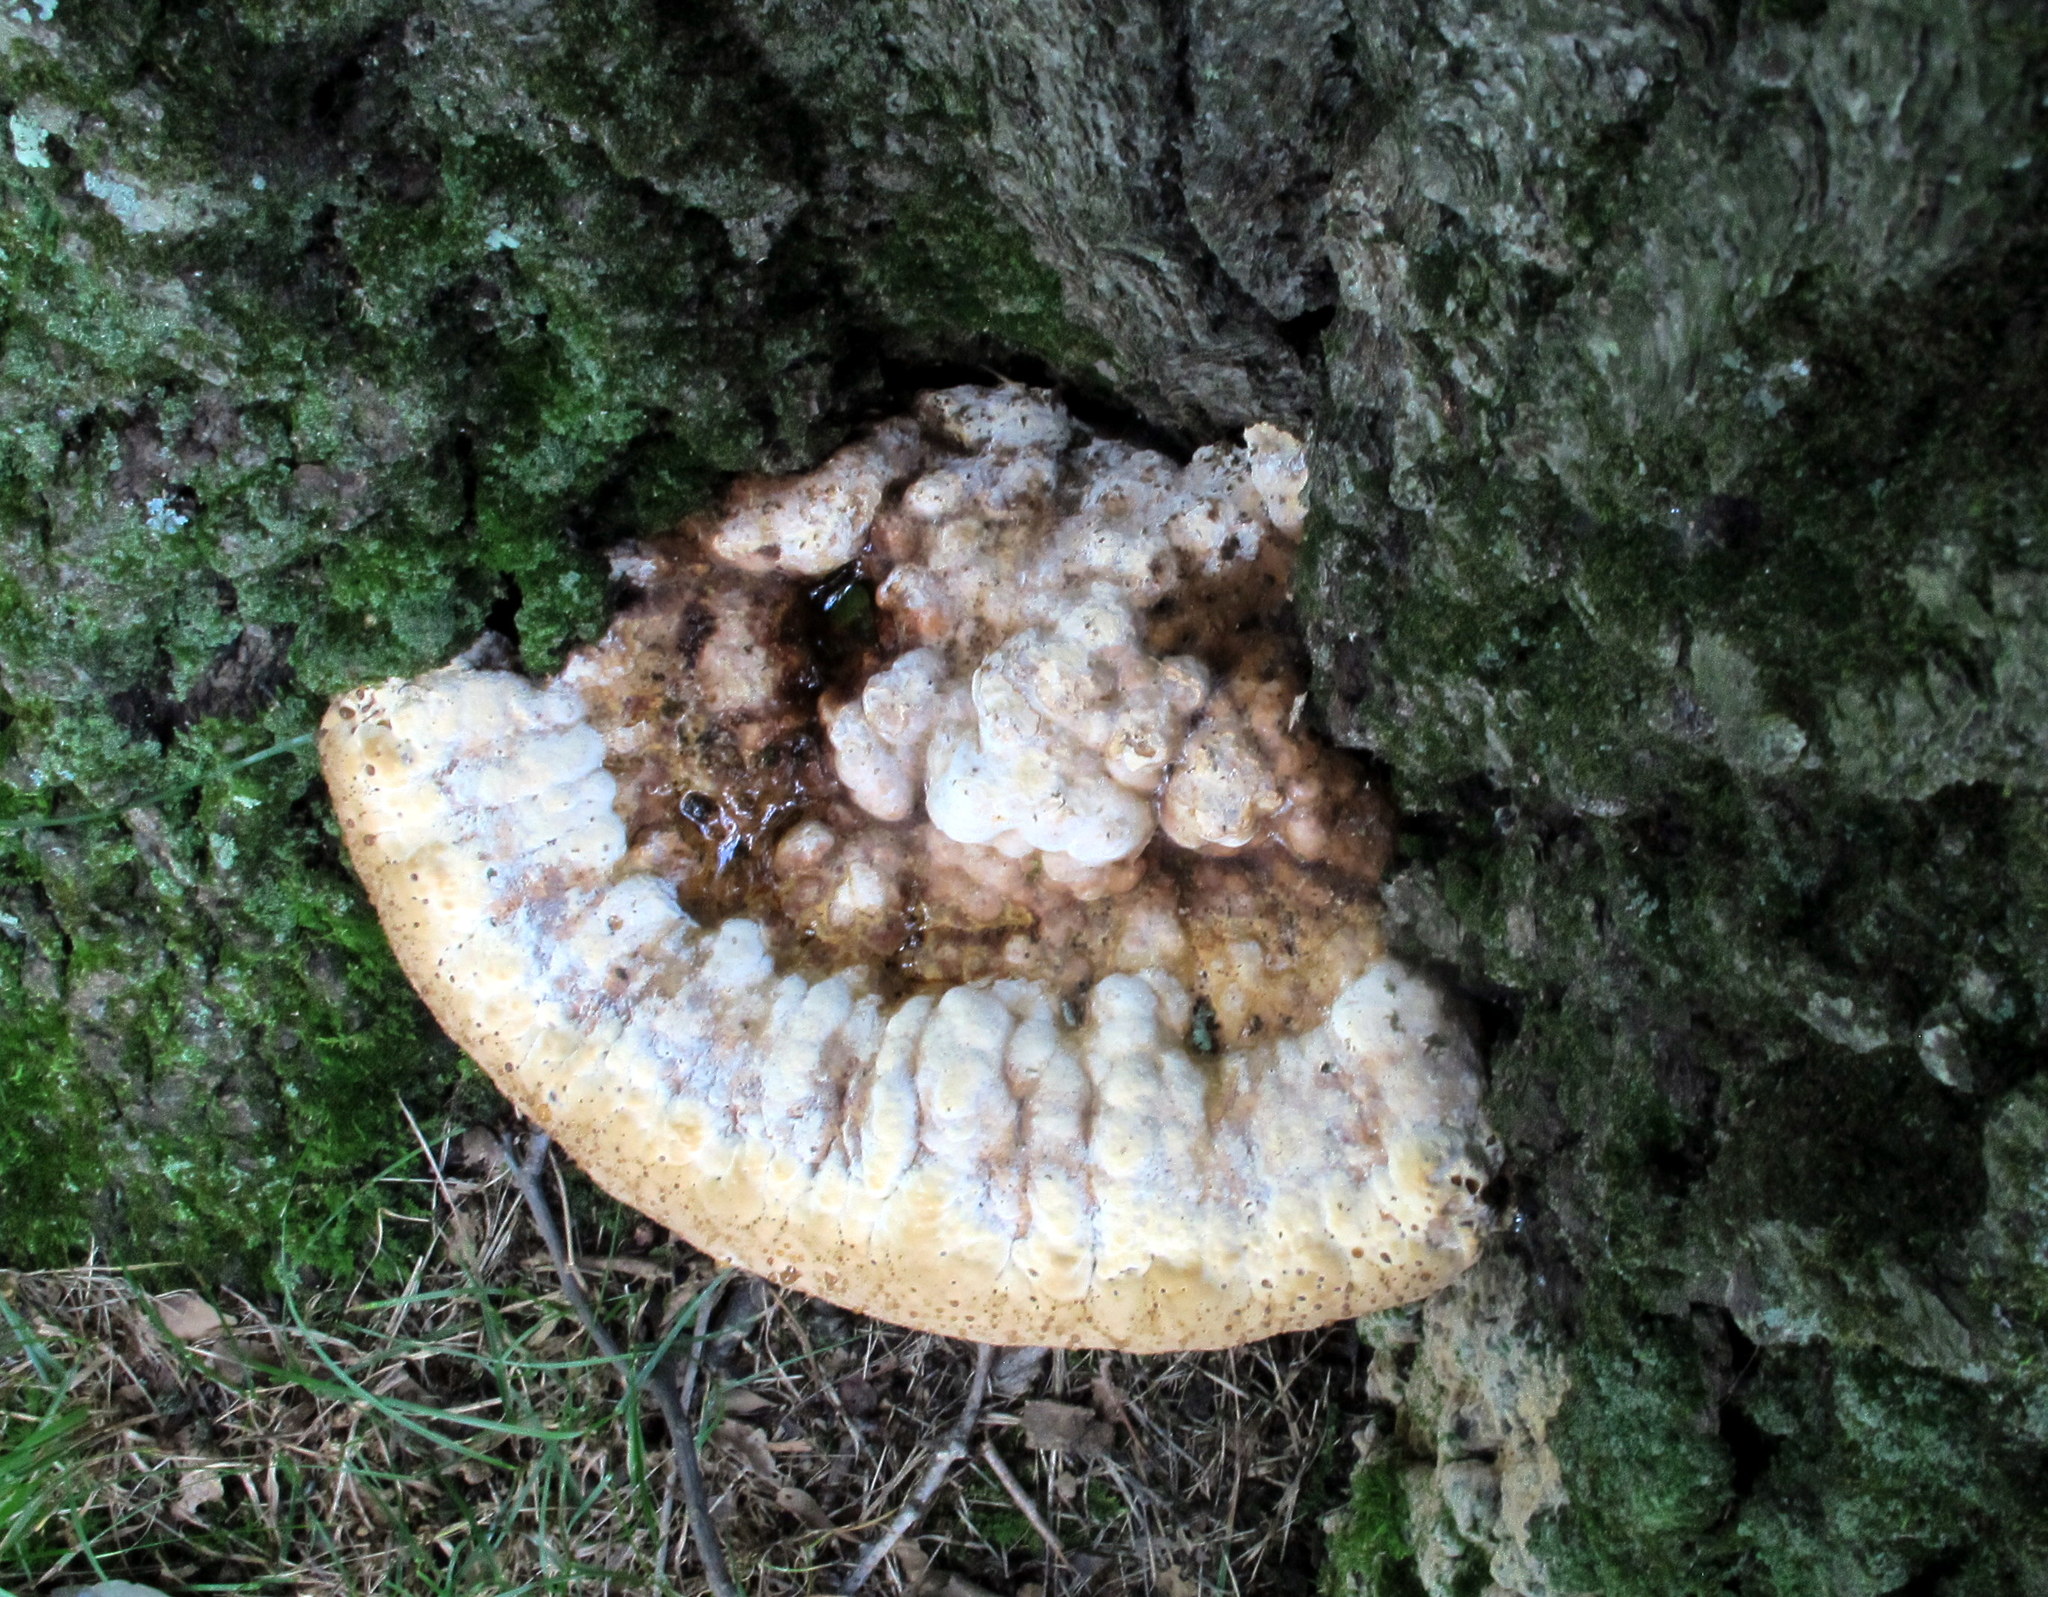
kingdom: Fungi
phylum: Basidiomycota
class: Agaricomycetes
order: Hymenochaetales
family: Hymenochaetaceae
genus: Pseudoinonotus
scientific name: Pseudoinonotus dryadeus
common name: Oak bracket
